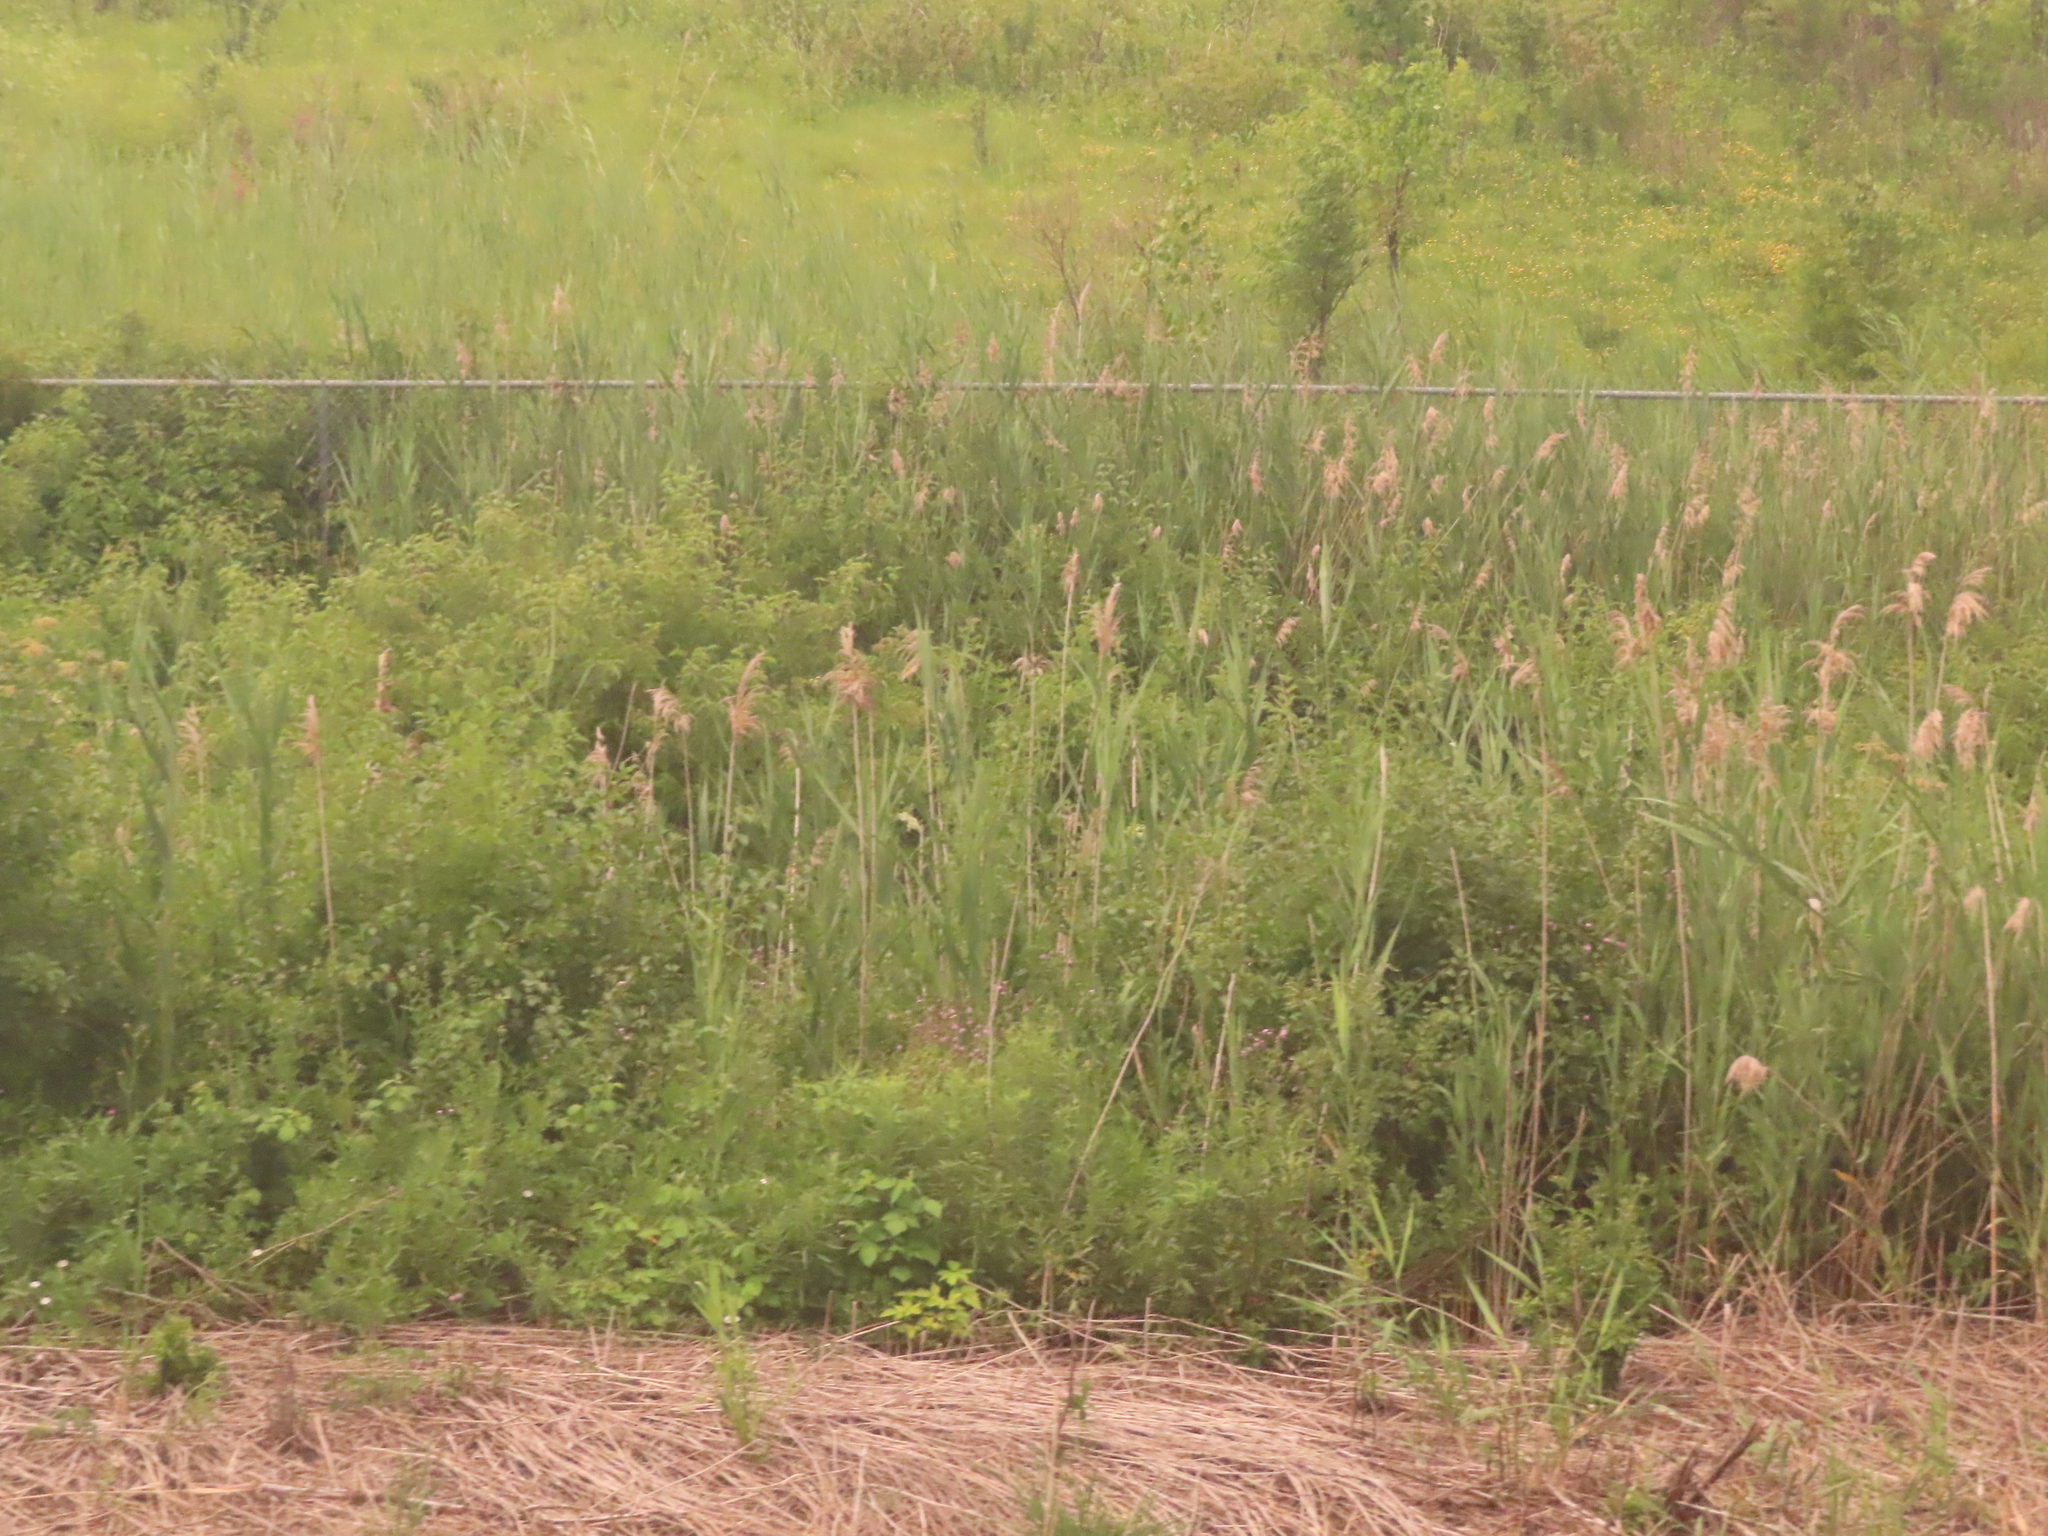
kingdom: Plantae
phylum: Tracheophyta
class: Liliopsida
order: Poales
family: Poaceae
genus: Phragmites
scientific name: Phragmites australis
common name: Common reed
